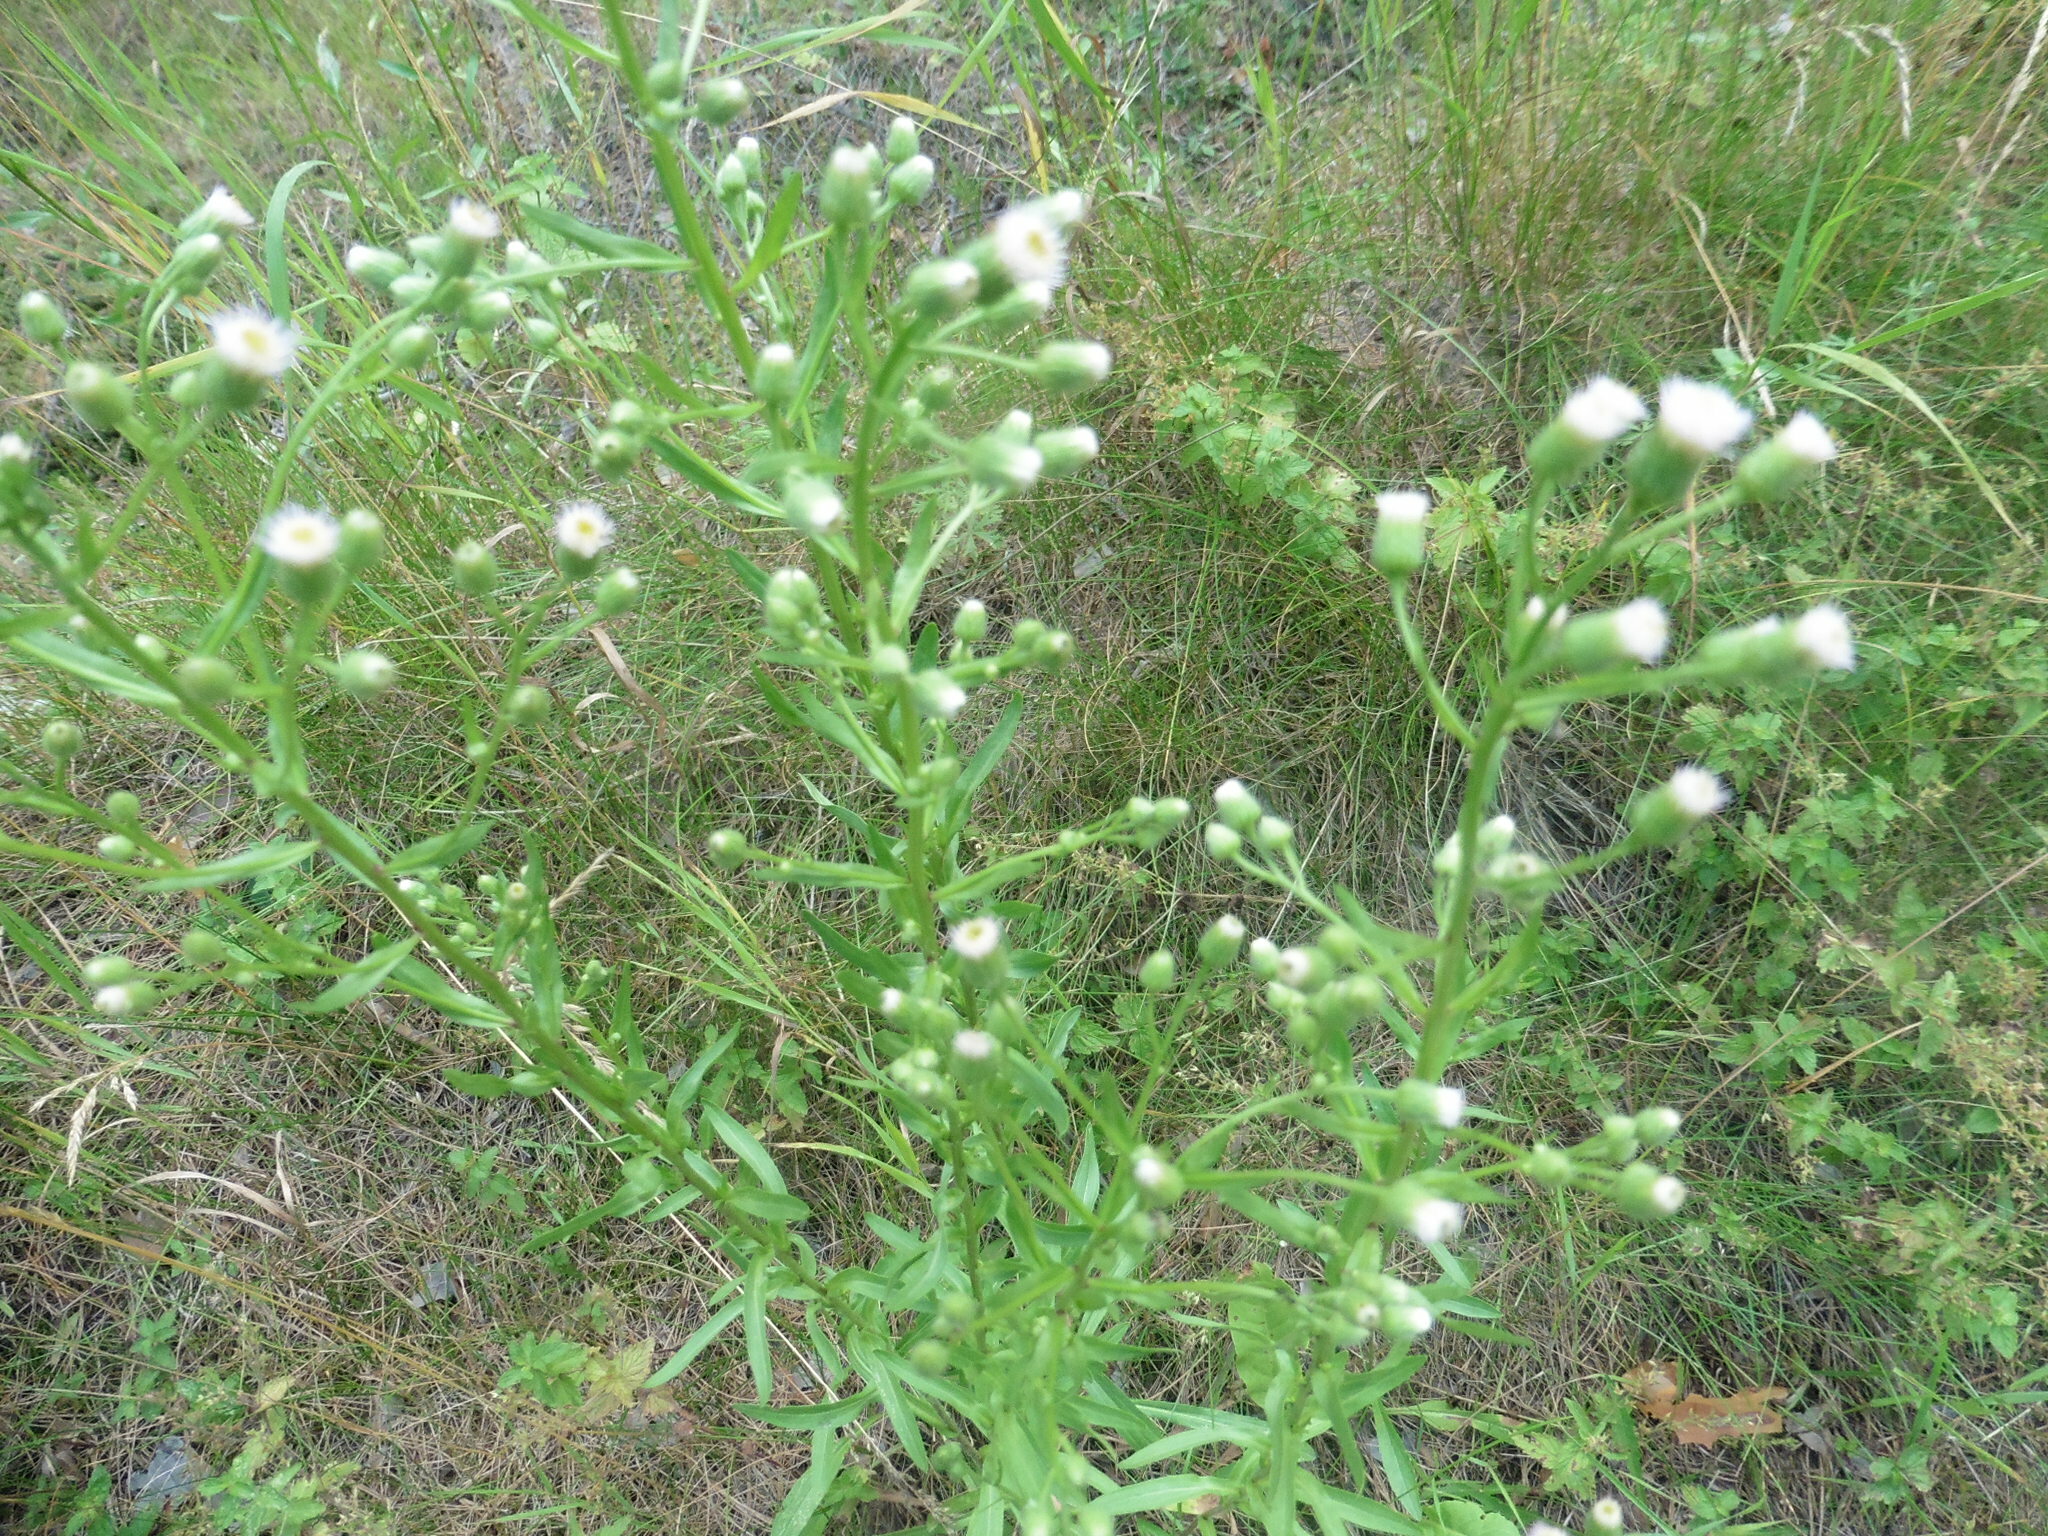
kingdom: Plantae
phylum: Tracheophyta
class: Magnoliopsida
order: Asterales
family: Asteraceae
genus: Erigeron
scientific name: Erigeron acris
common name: Blue fleabane
